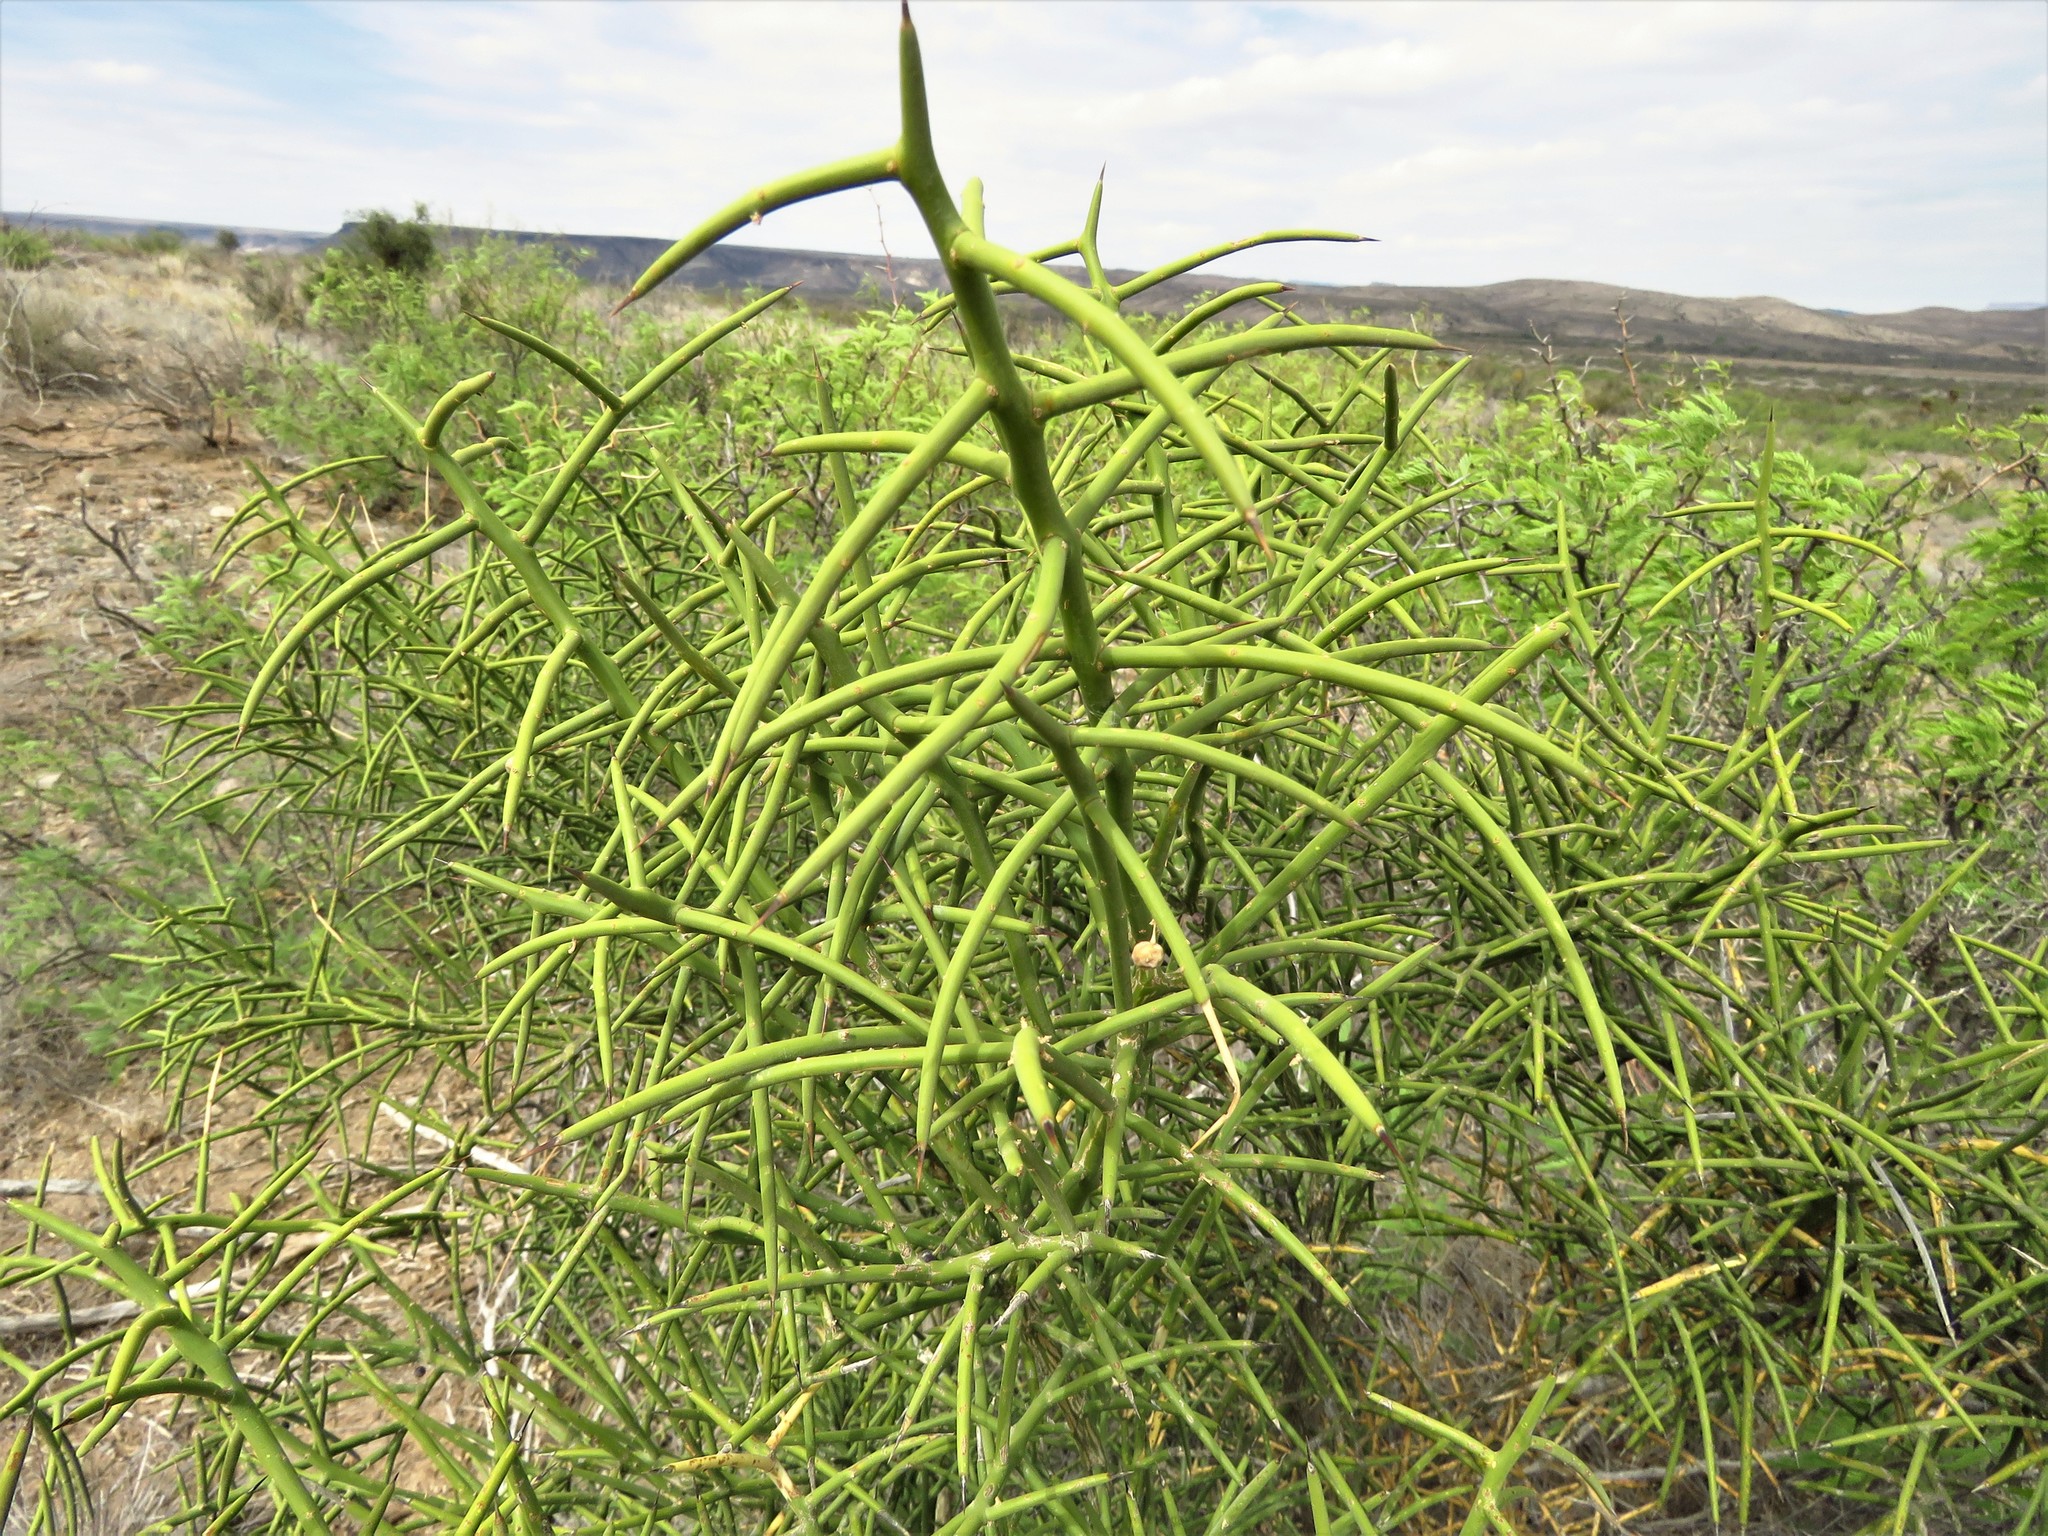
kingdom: Plantae
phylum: Tracheophyta
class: Magnoliopsida
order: Brassicales
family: Koeberliniaceae
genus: Koeberlinia
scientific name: Koeberlinia spinosa
